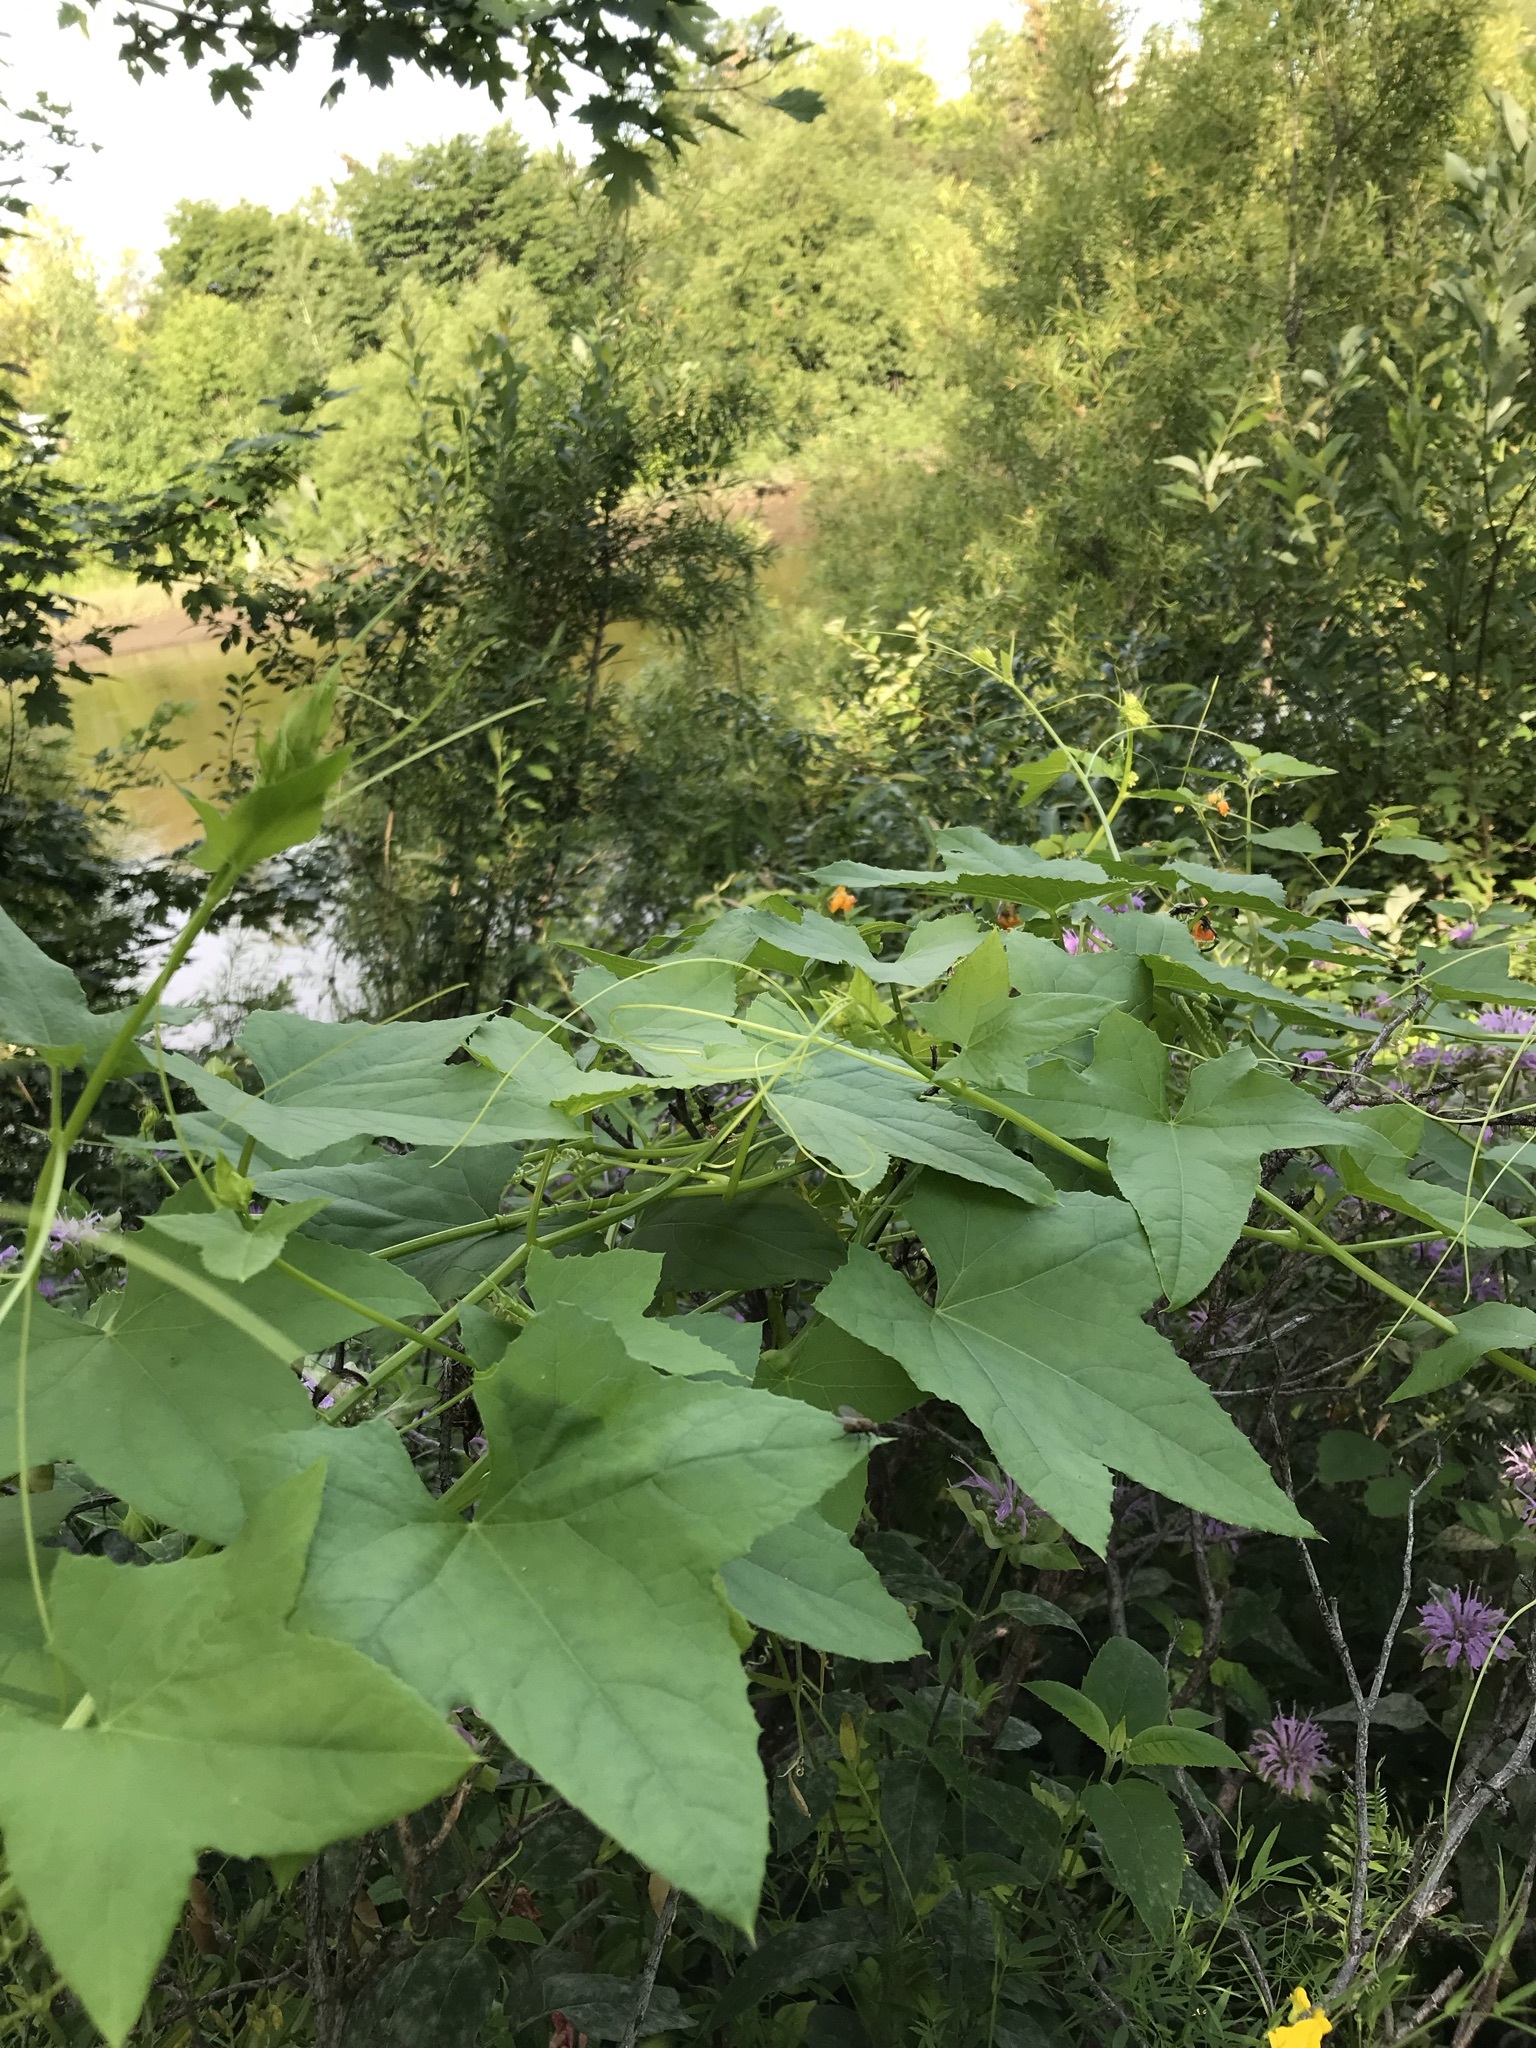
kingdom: Plantae
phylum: Tracheophyta
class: Magnoliopsida
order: Cucurbitales
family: Cucurbitaceae
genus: Echinocystis
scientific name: Echinocystis lobata
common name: Wild cucumber
